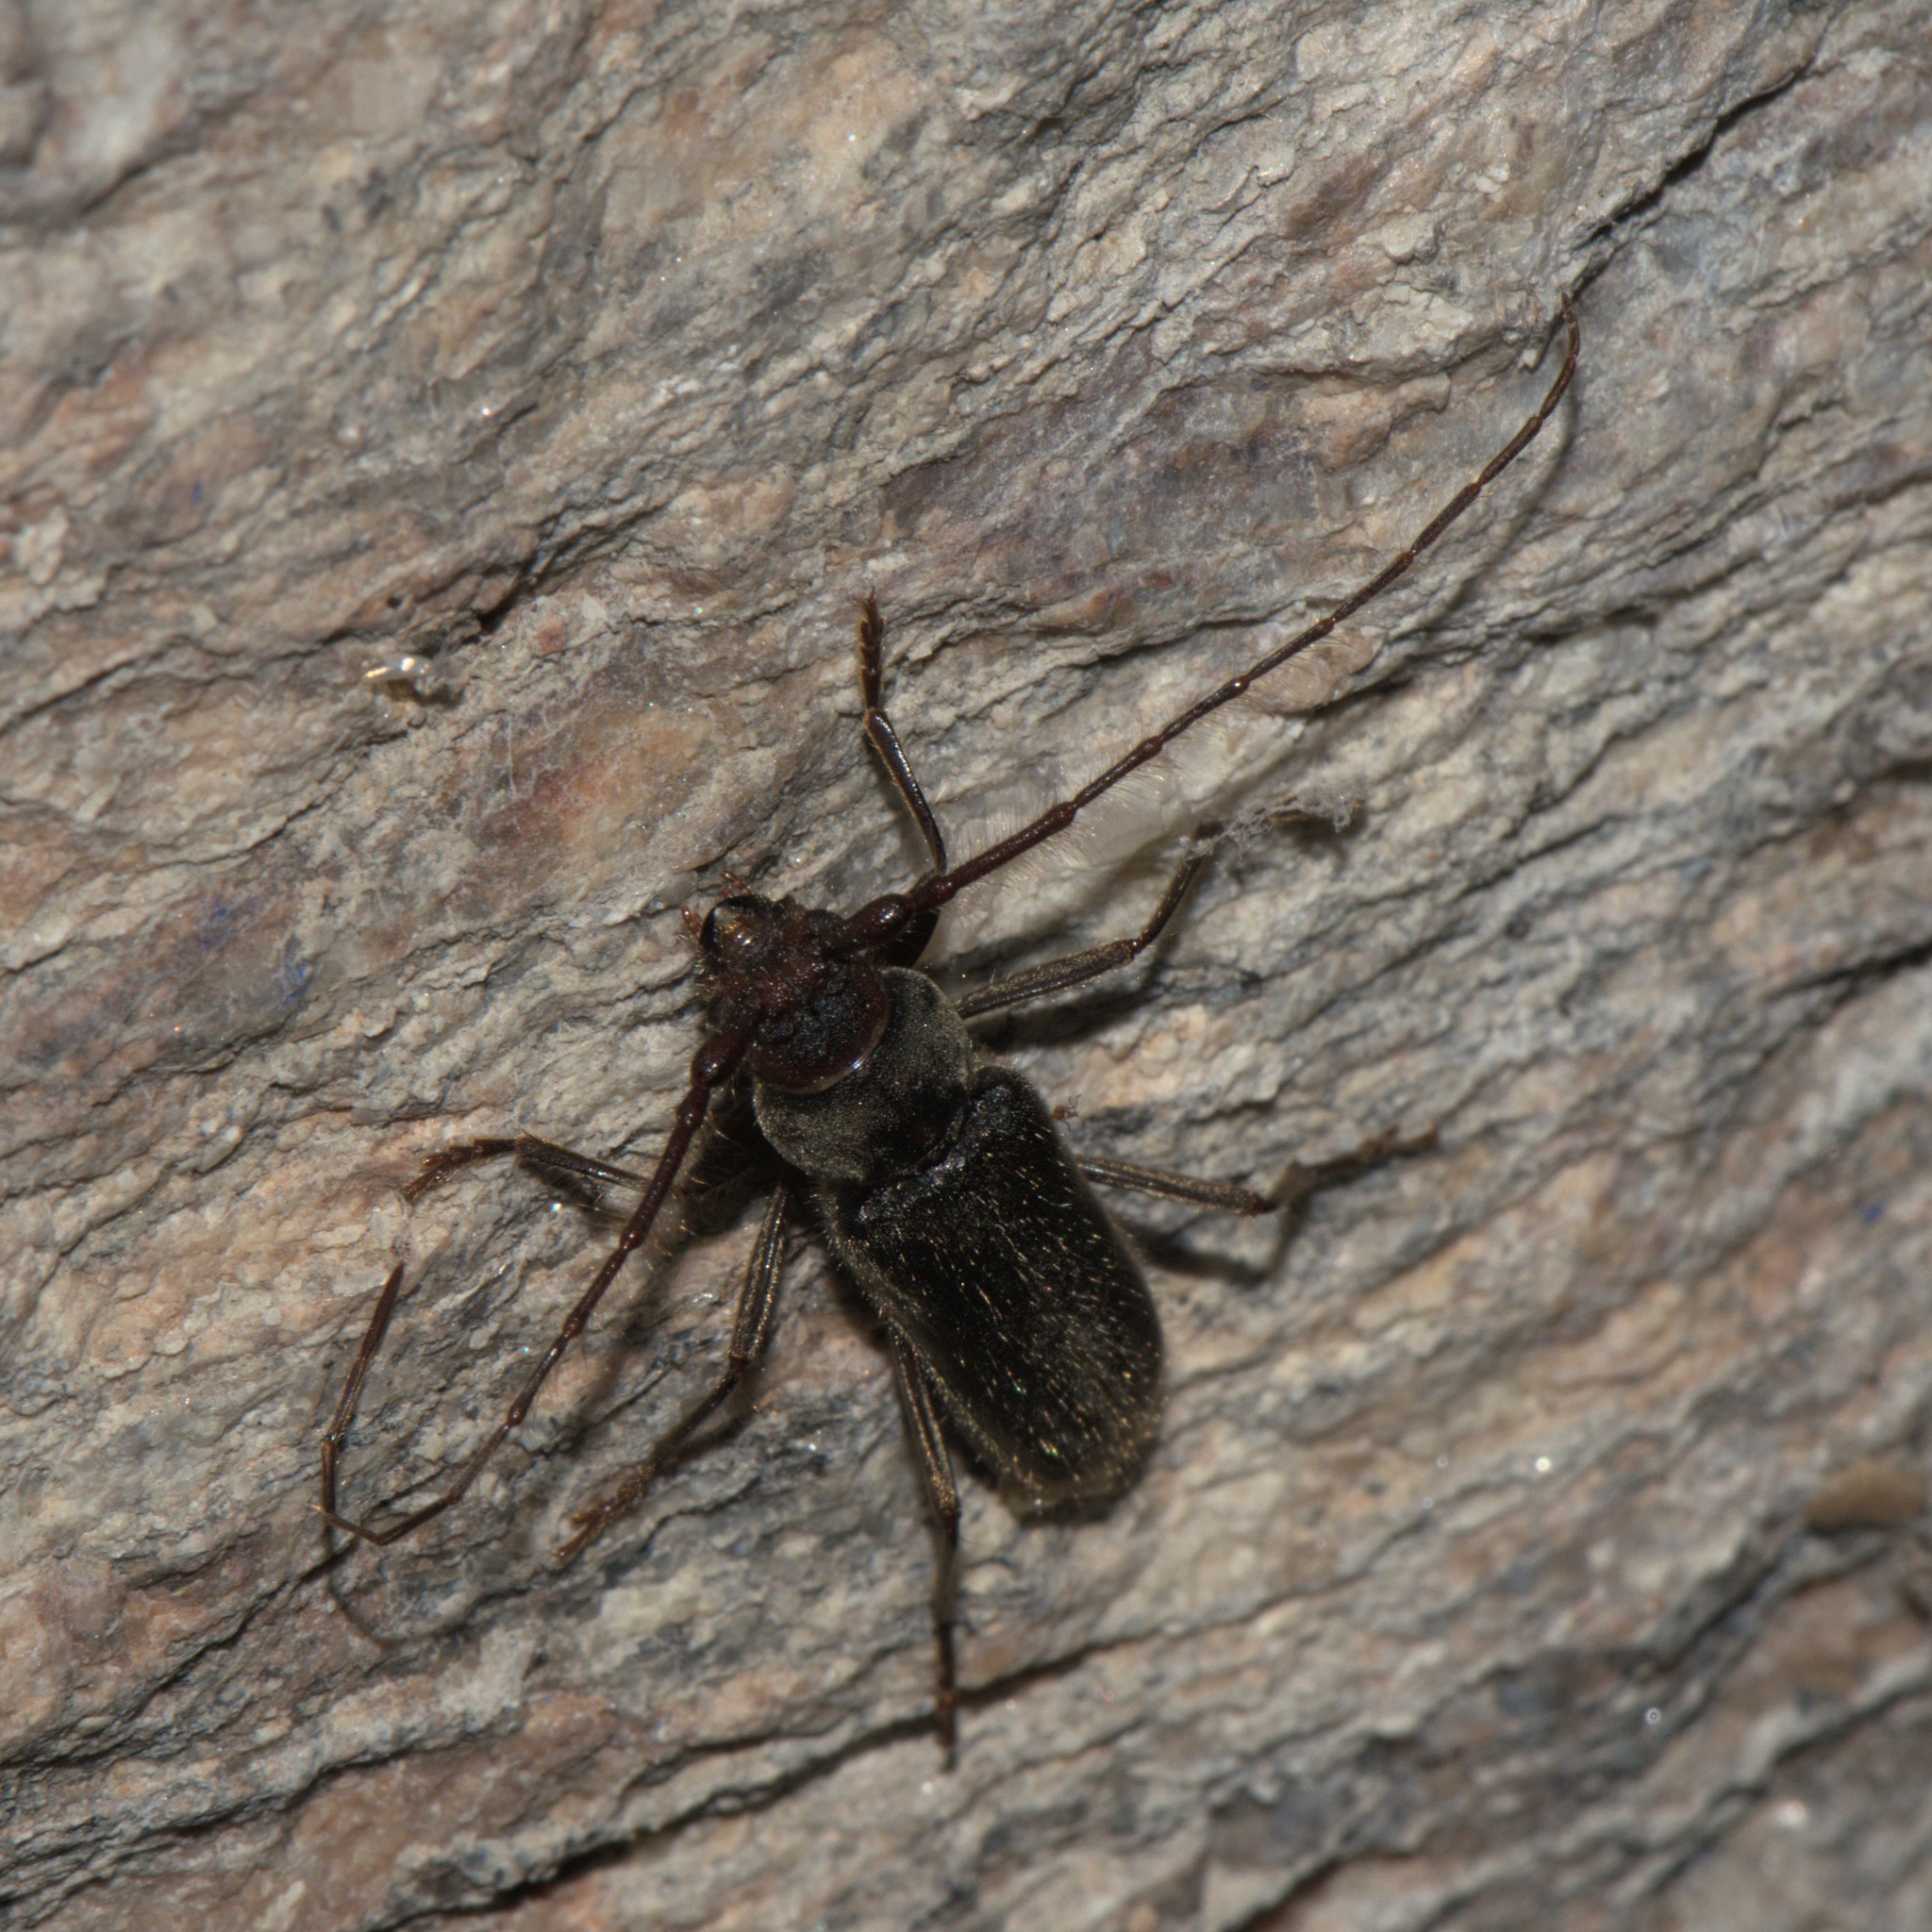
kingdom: Animalia
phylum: Arthropoda
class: Insecta
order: Coleoptera
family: Cerambycidae
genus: Stromatium
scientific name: Stromatium barbatum
